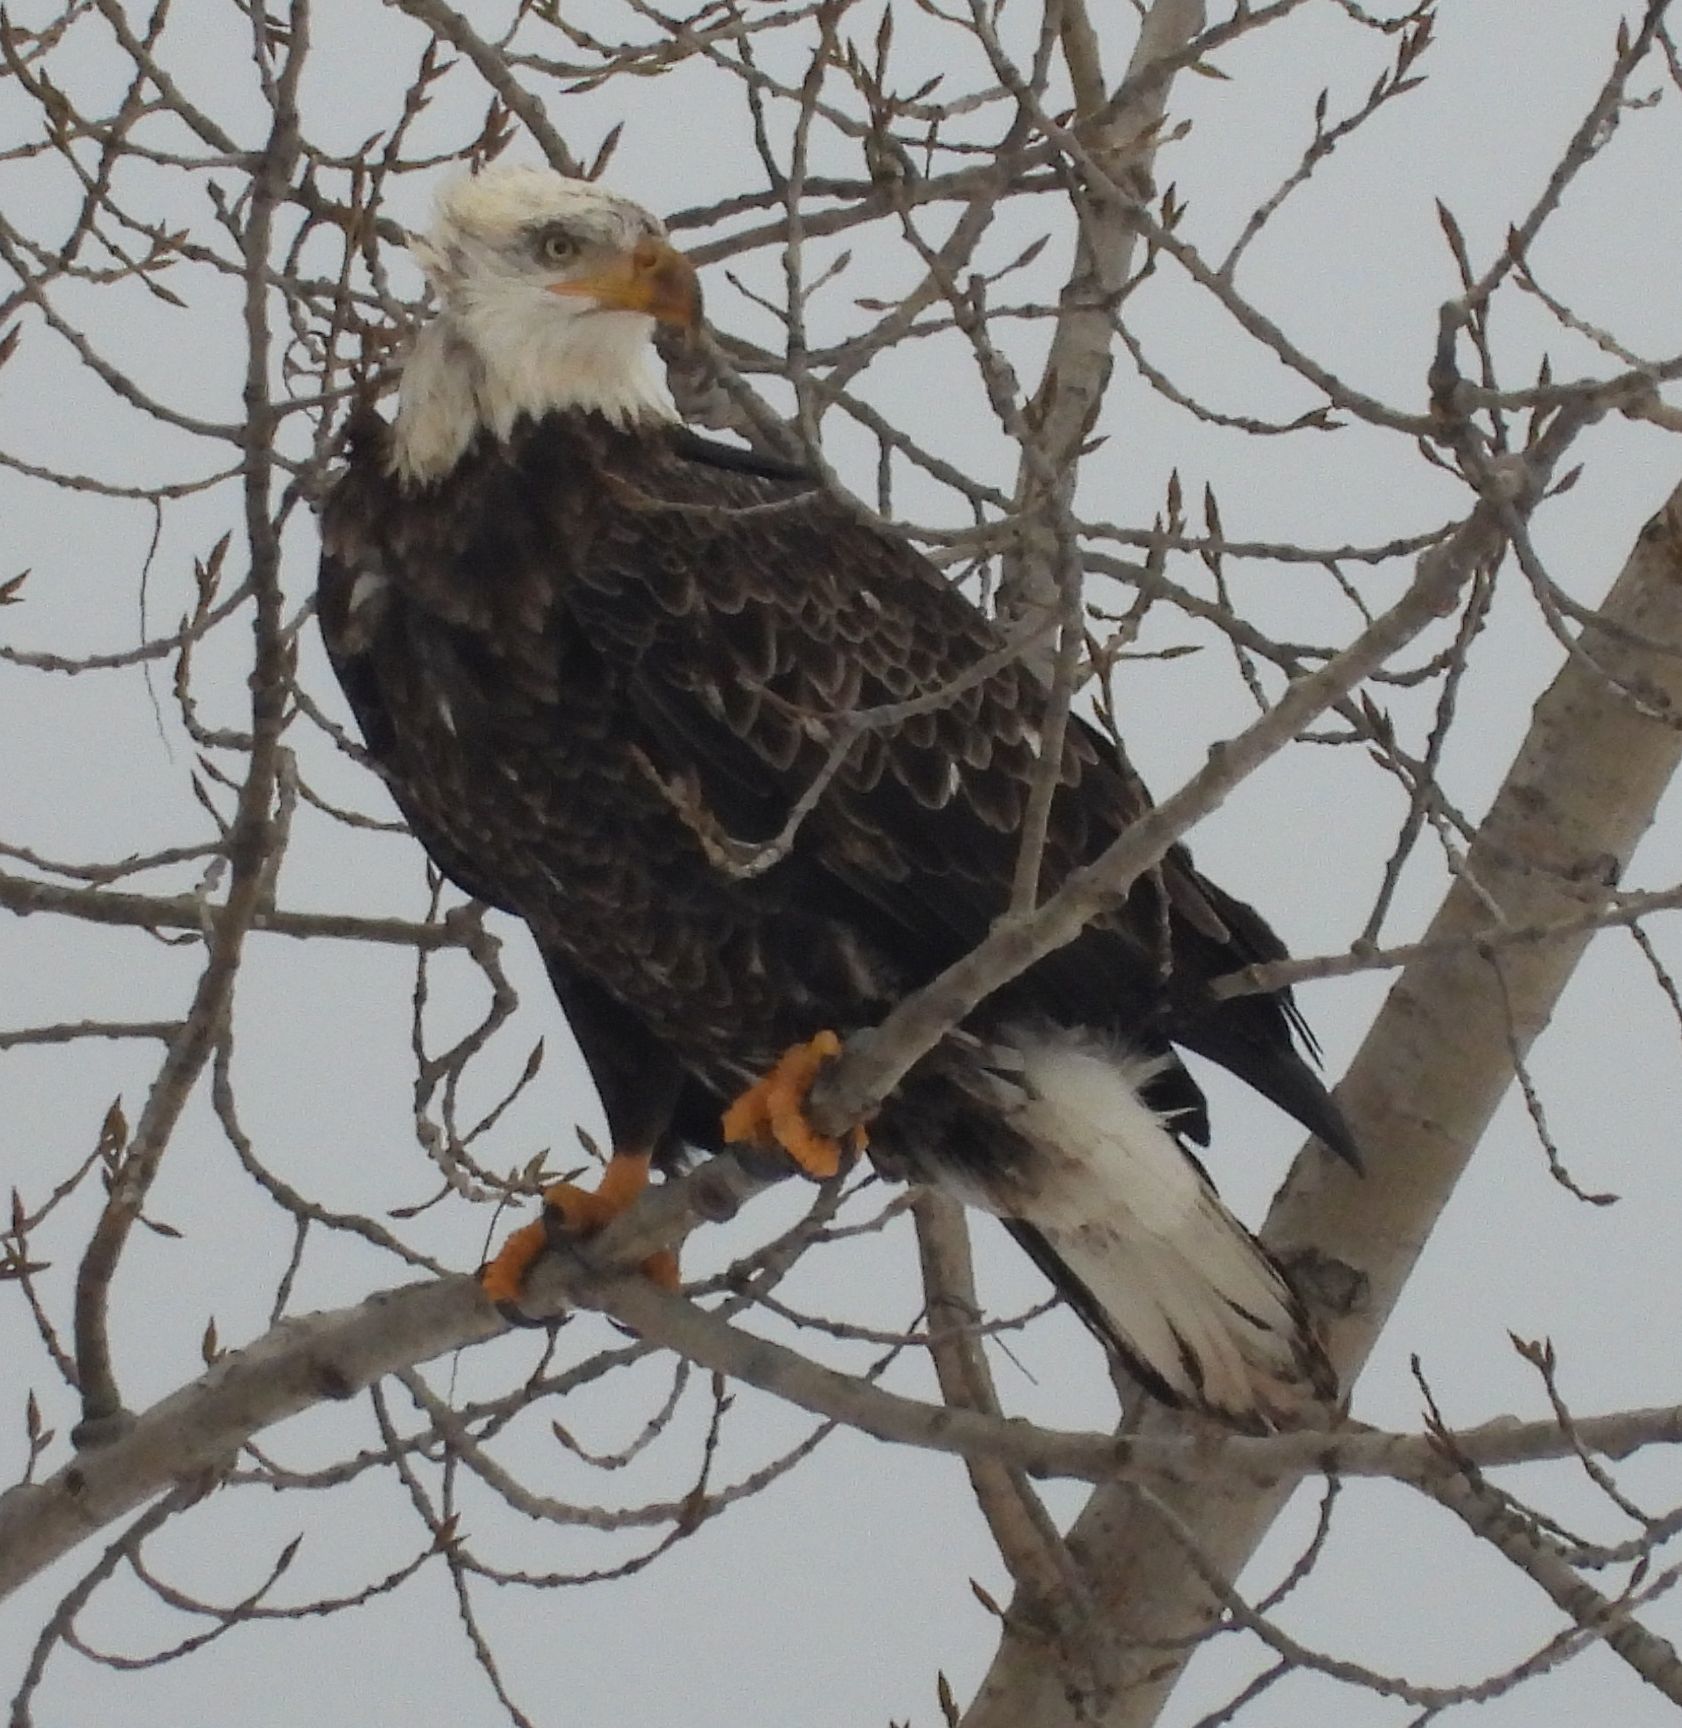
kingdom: Animalia
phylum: Chordata
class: Aves
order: Accipitriformes
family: Accipitridae
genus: Haliaeetus
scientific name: Haliaeetus leucocephalus
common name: Bald eagle
